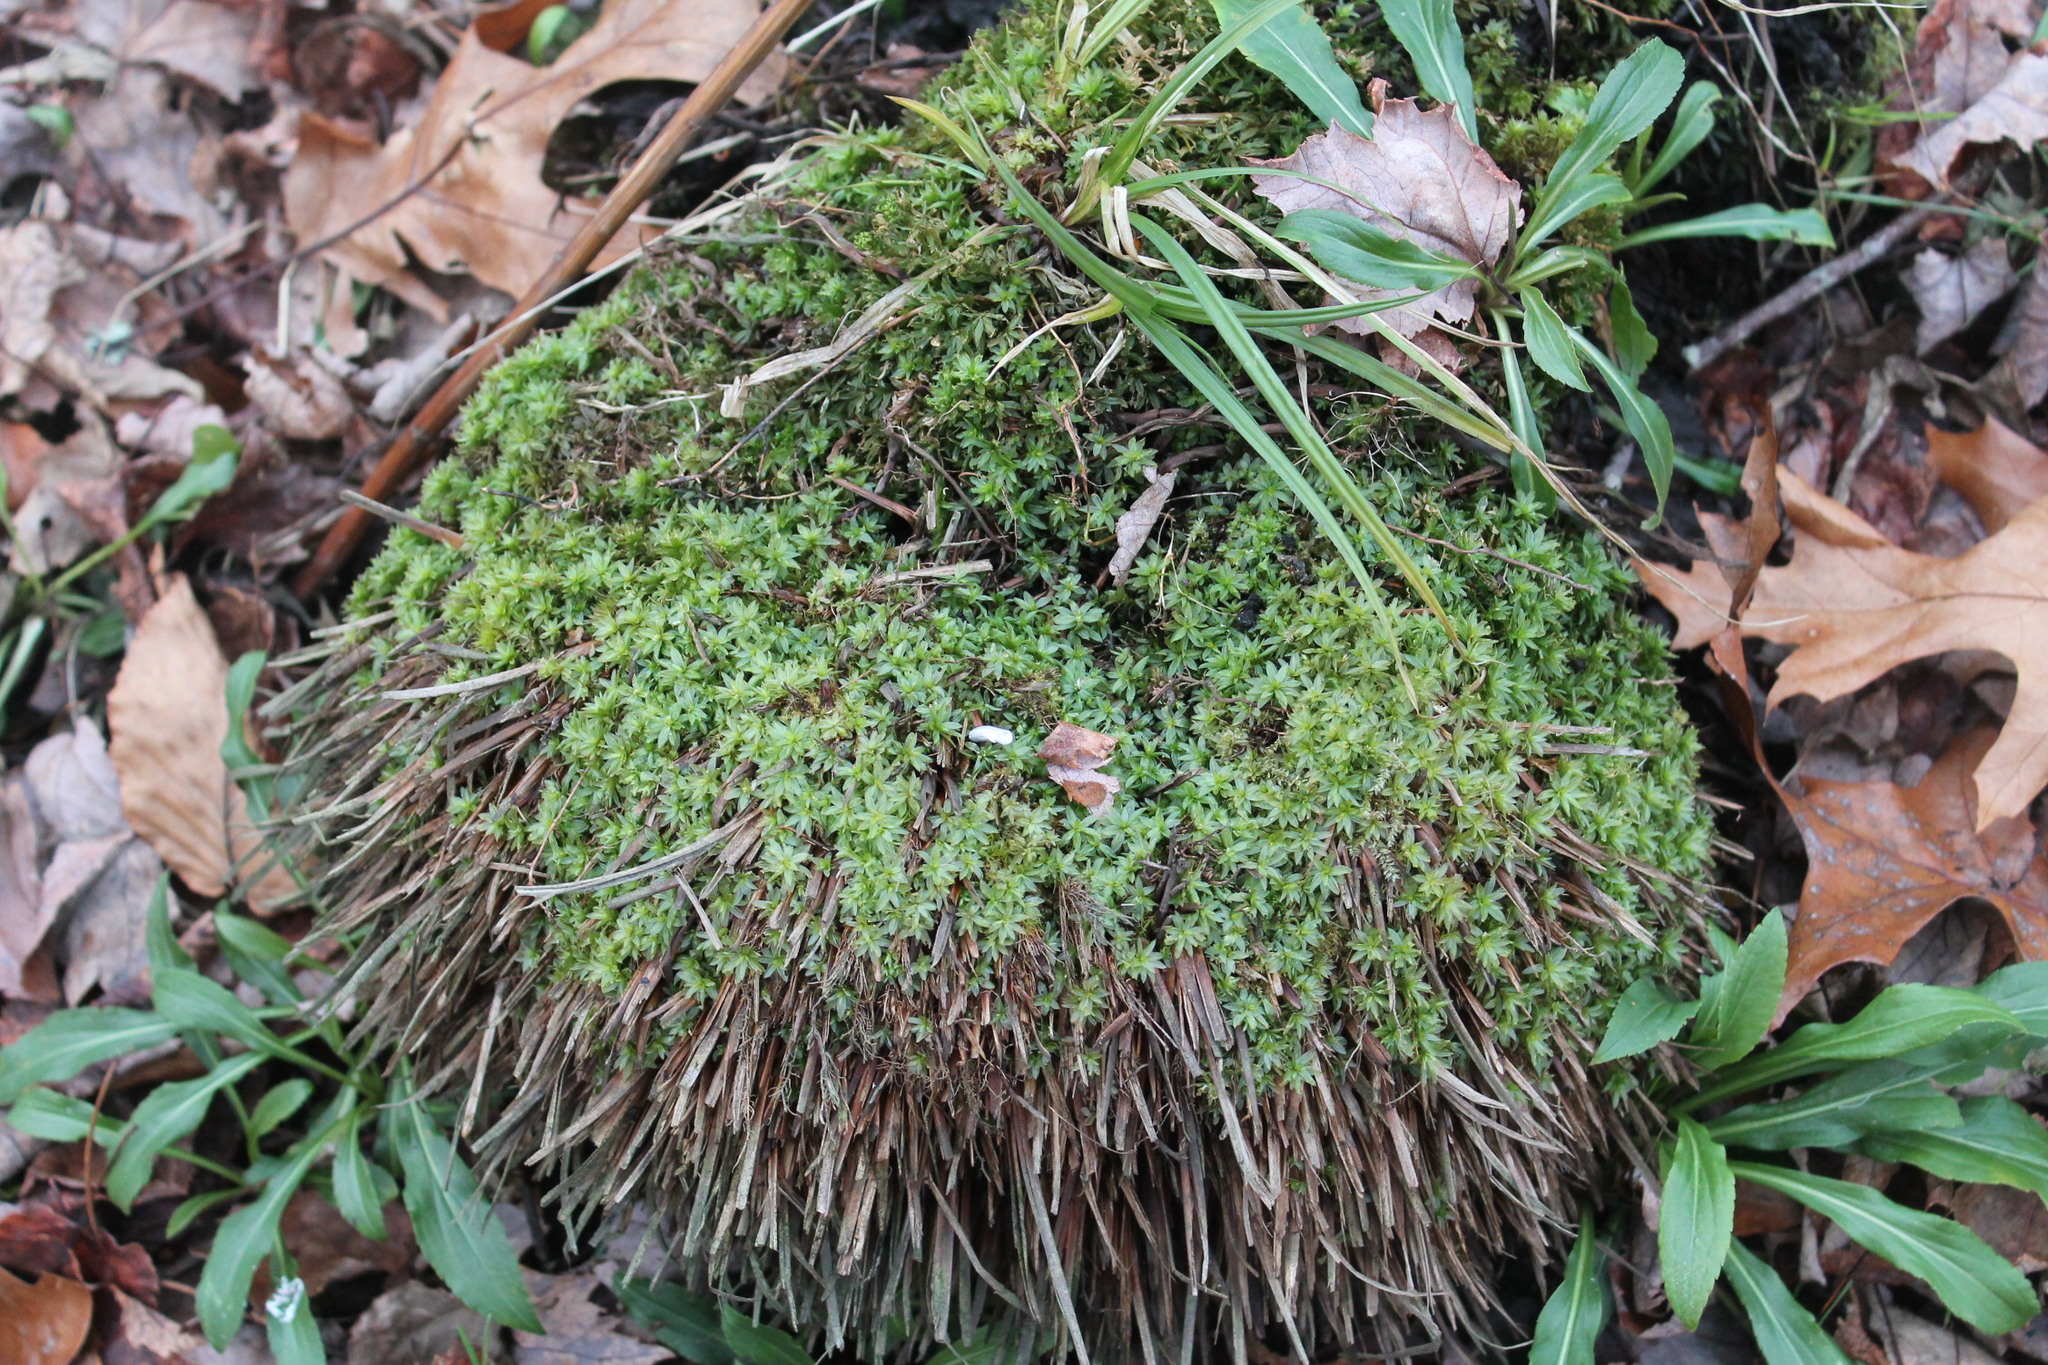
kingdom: Plantae
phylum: Bryophyta
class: Polytrichopsida
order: Polytrichales
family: Polytrichaceae
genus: Atrichum
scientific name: Atrichum crispum
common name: Fountain smoothcap
